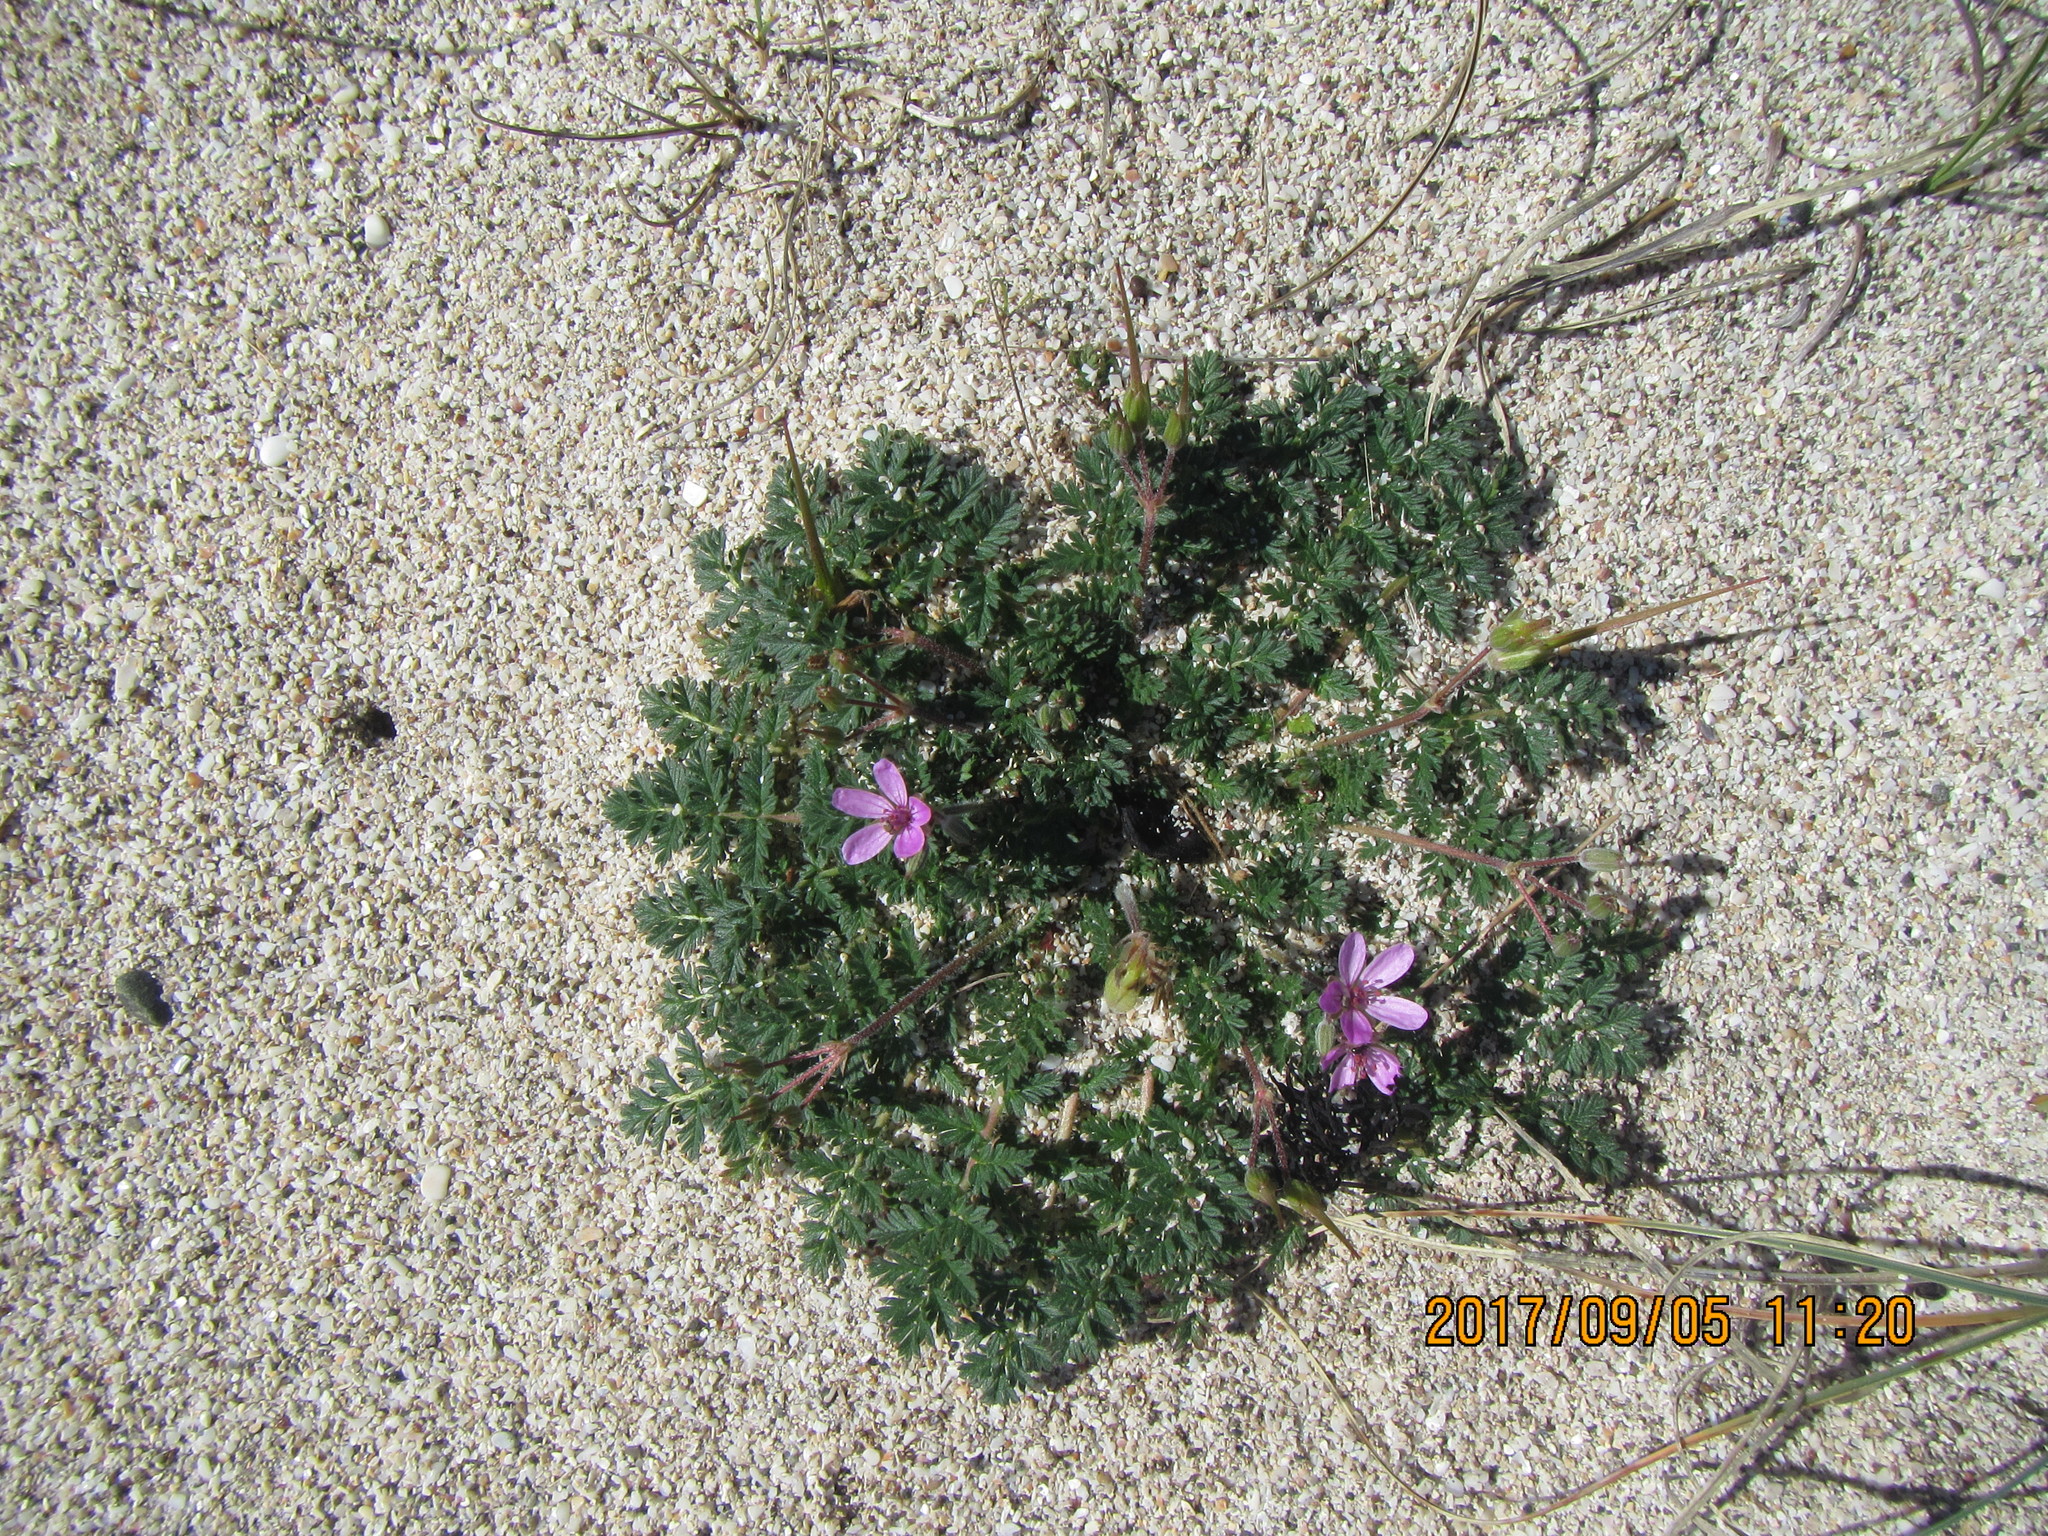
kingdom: Plantae
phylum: Tracheophyta
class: Magnoliopsida
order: Geraniales
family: Geraniaceae
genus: Erodium
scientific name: Erodium cicutarium
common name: Common stork's-bill
